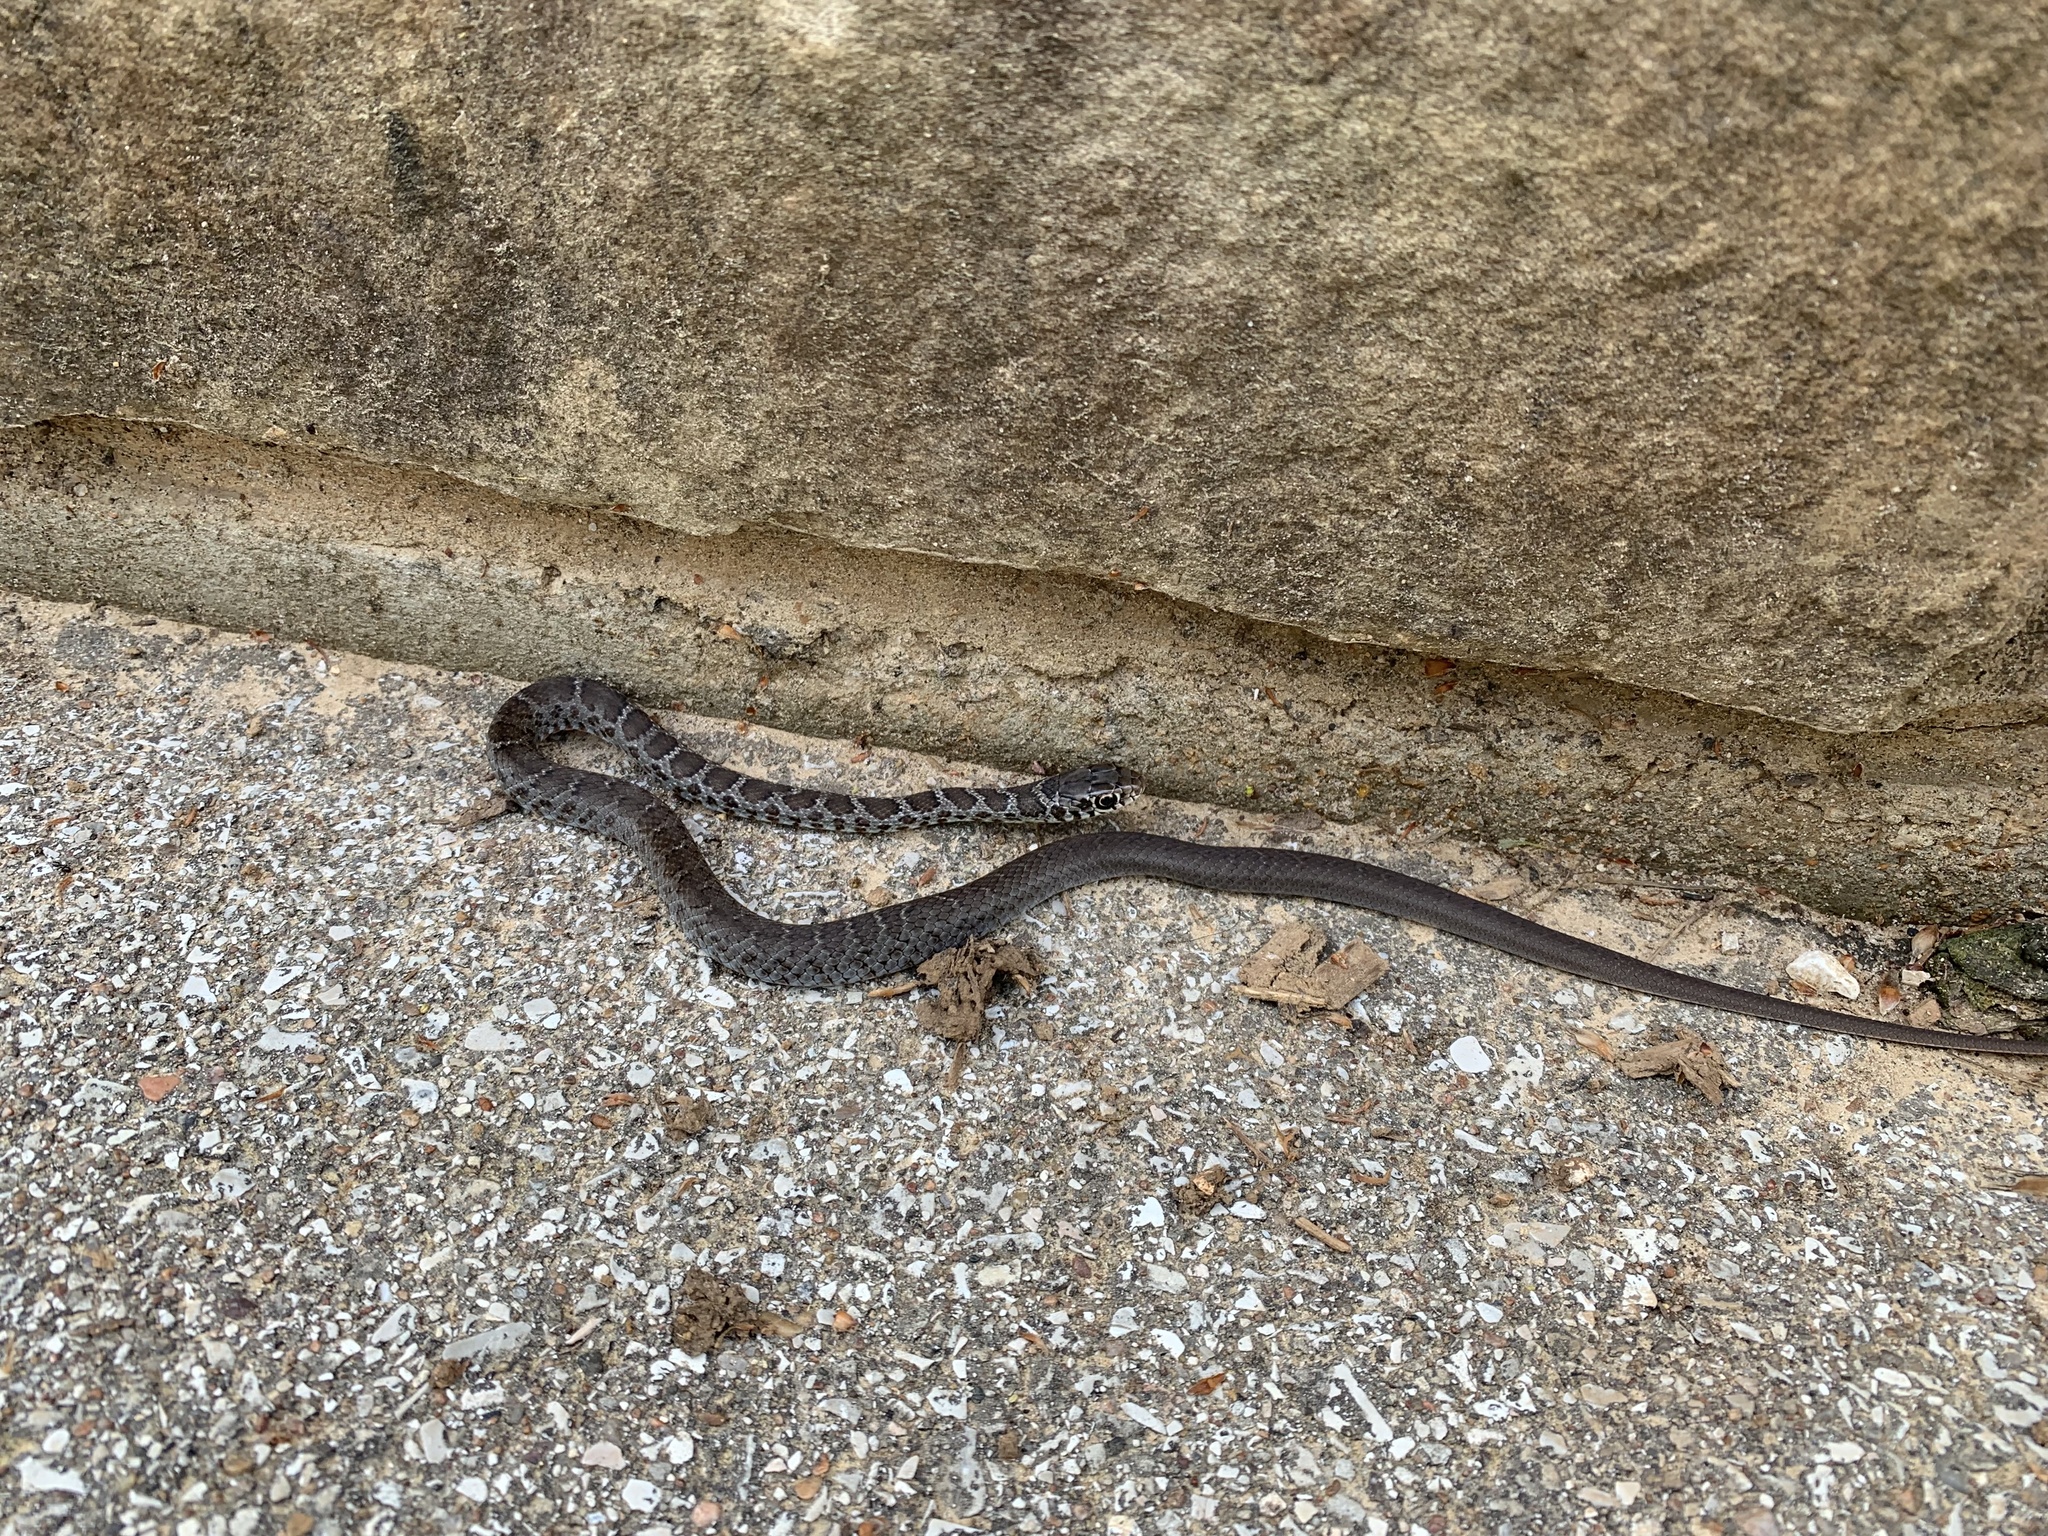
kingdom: Animalia
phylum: Chordata
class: Squamata
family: Colubridae
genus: Coluber
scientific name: Coluber constrictor
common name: Eastern racer
